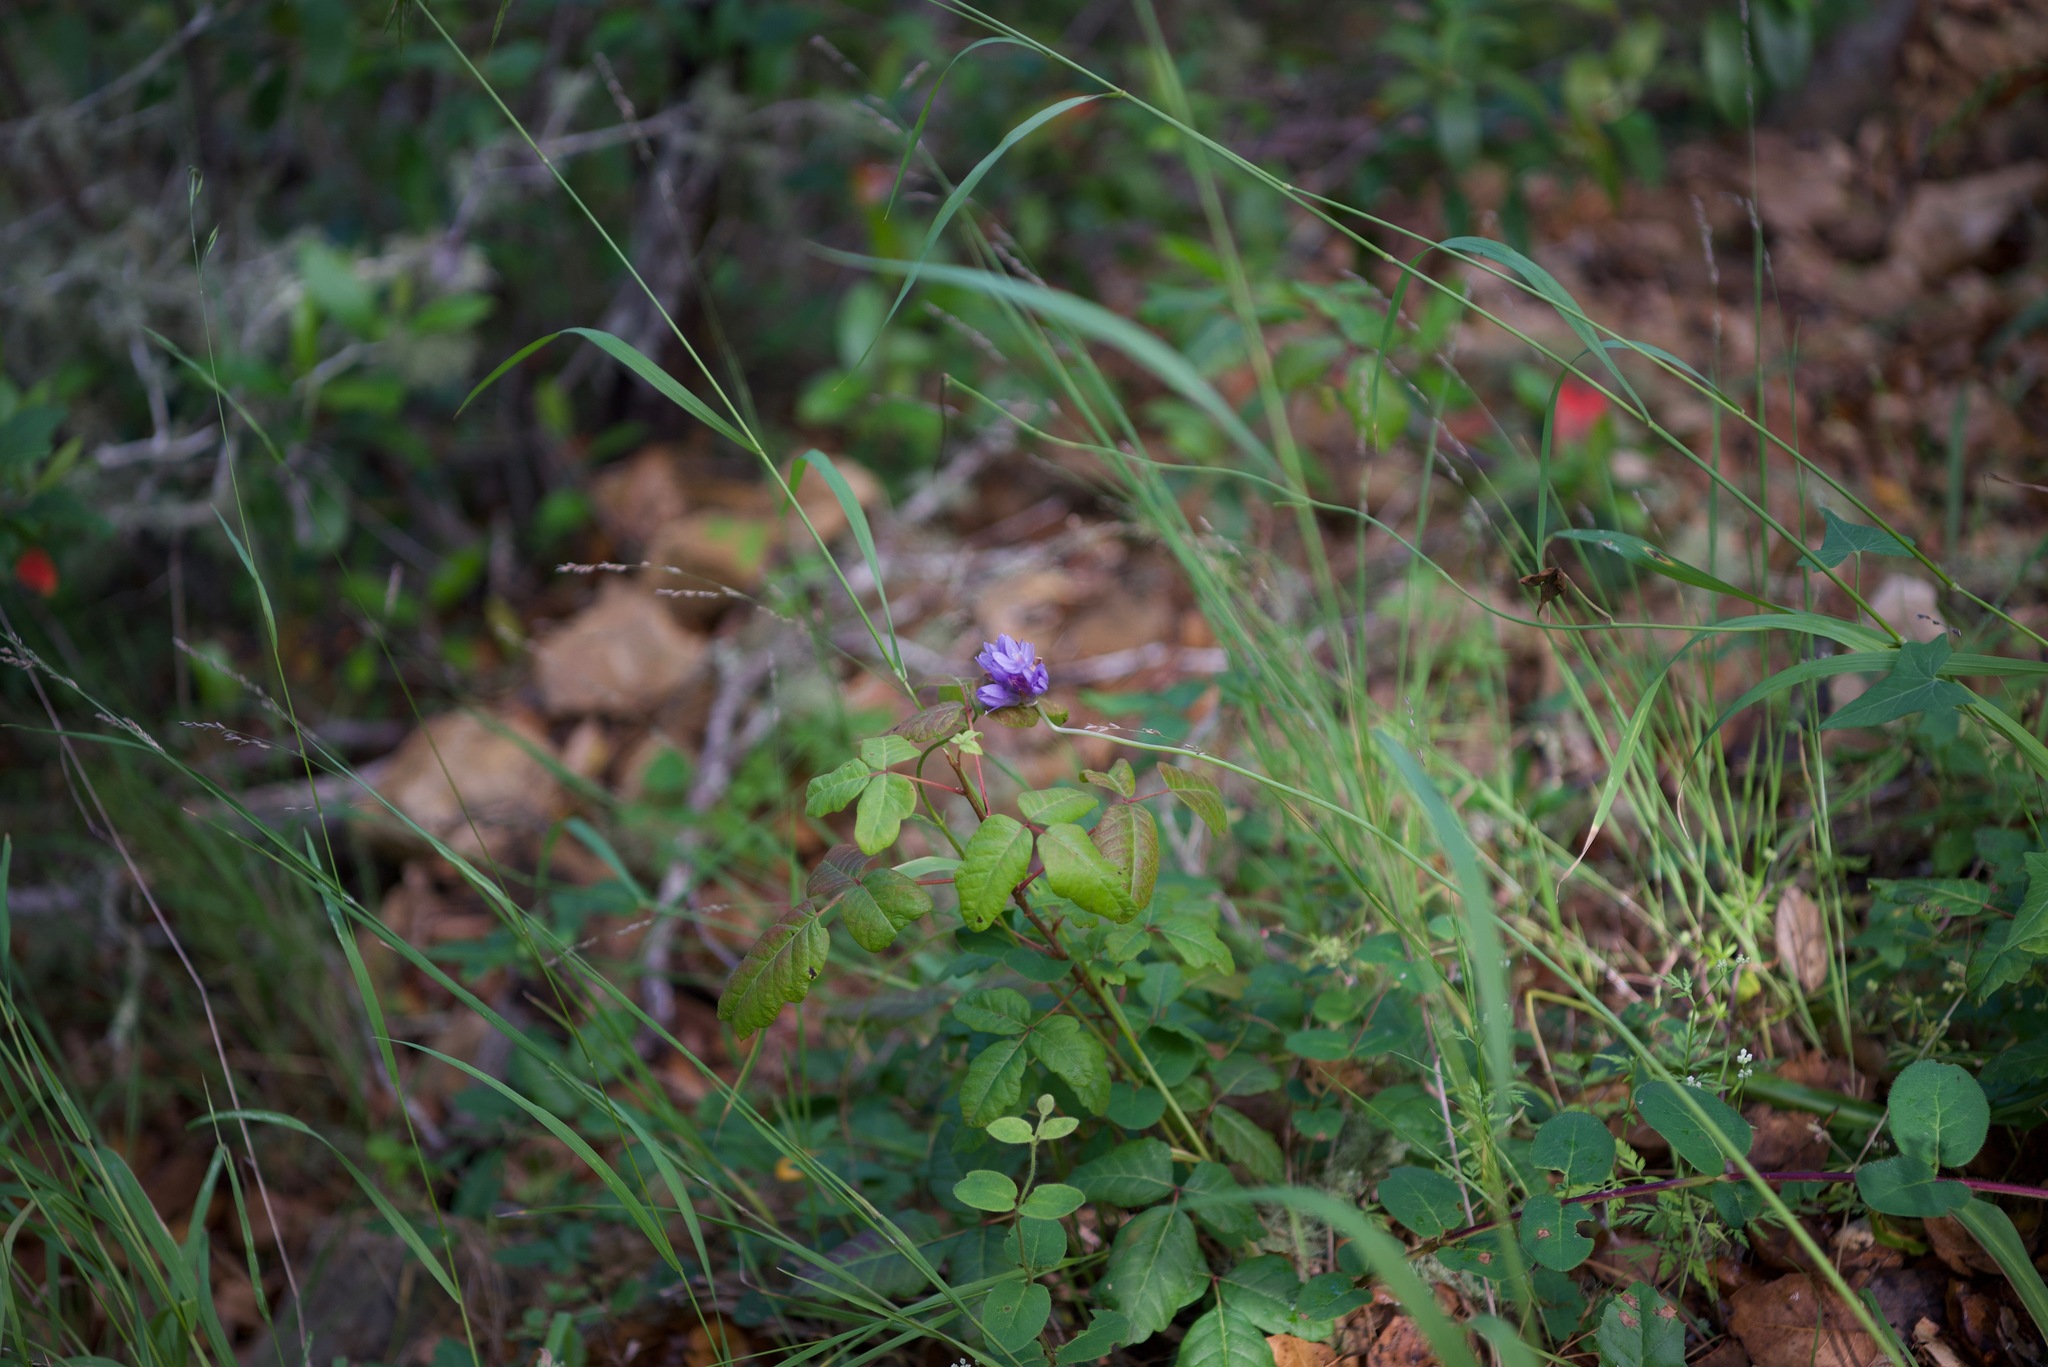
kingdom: Plantae
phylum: Tracheophyta
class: Liliopsida
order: Asparagales
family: Asparagaceae
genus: Dipterostemon
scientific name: Dipterostemon capitatus
